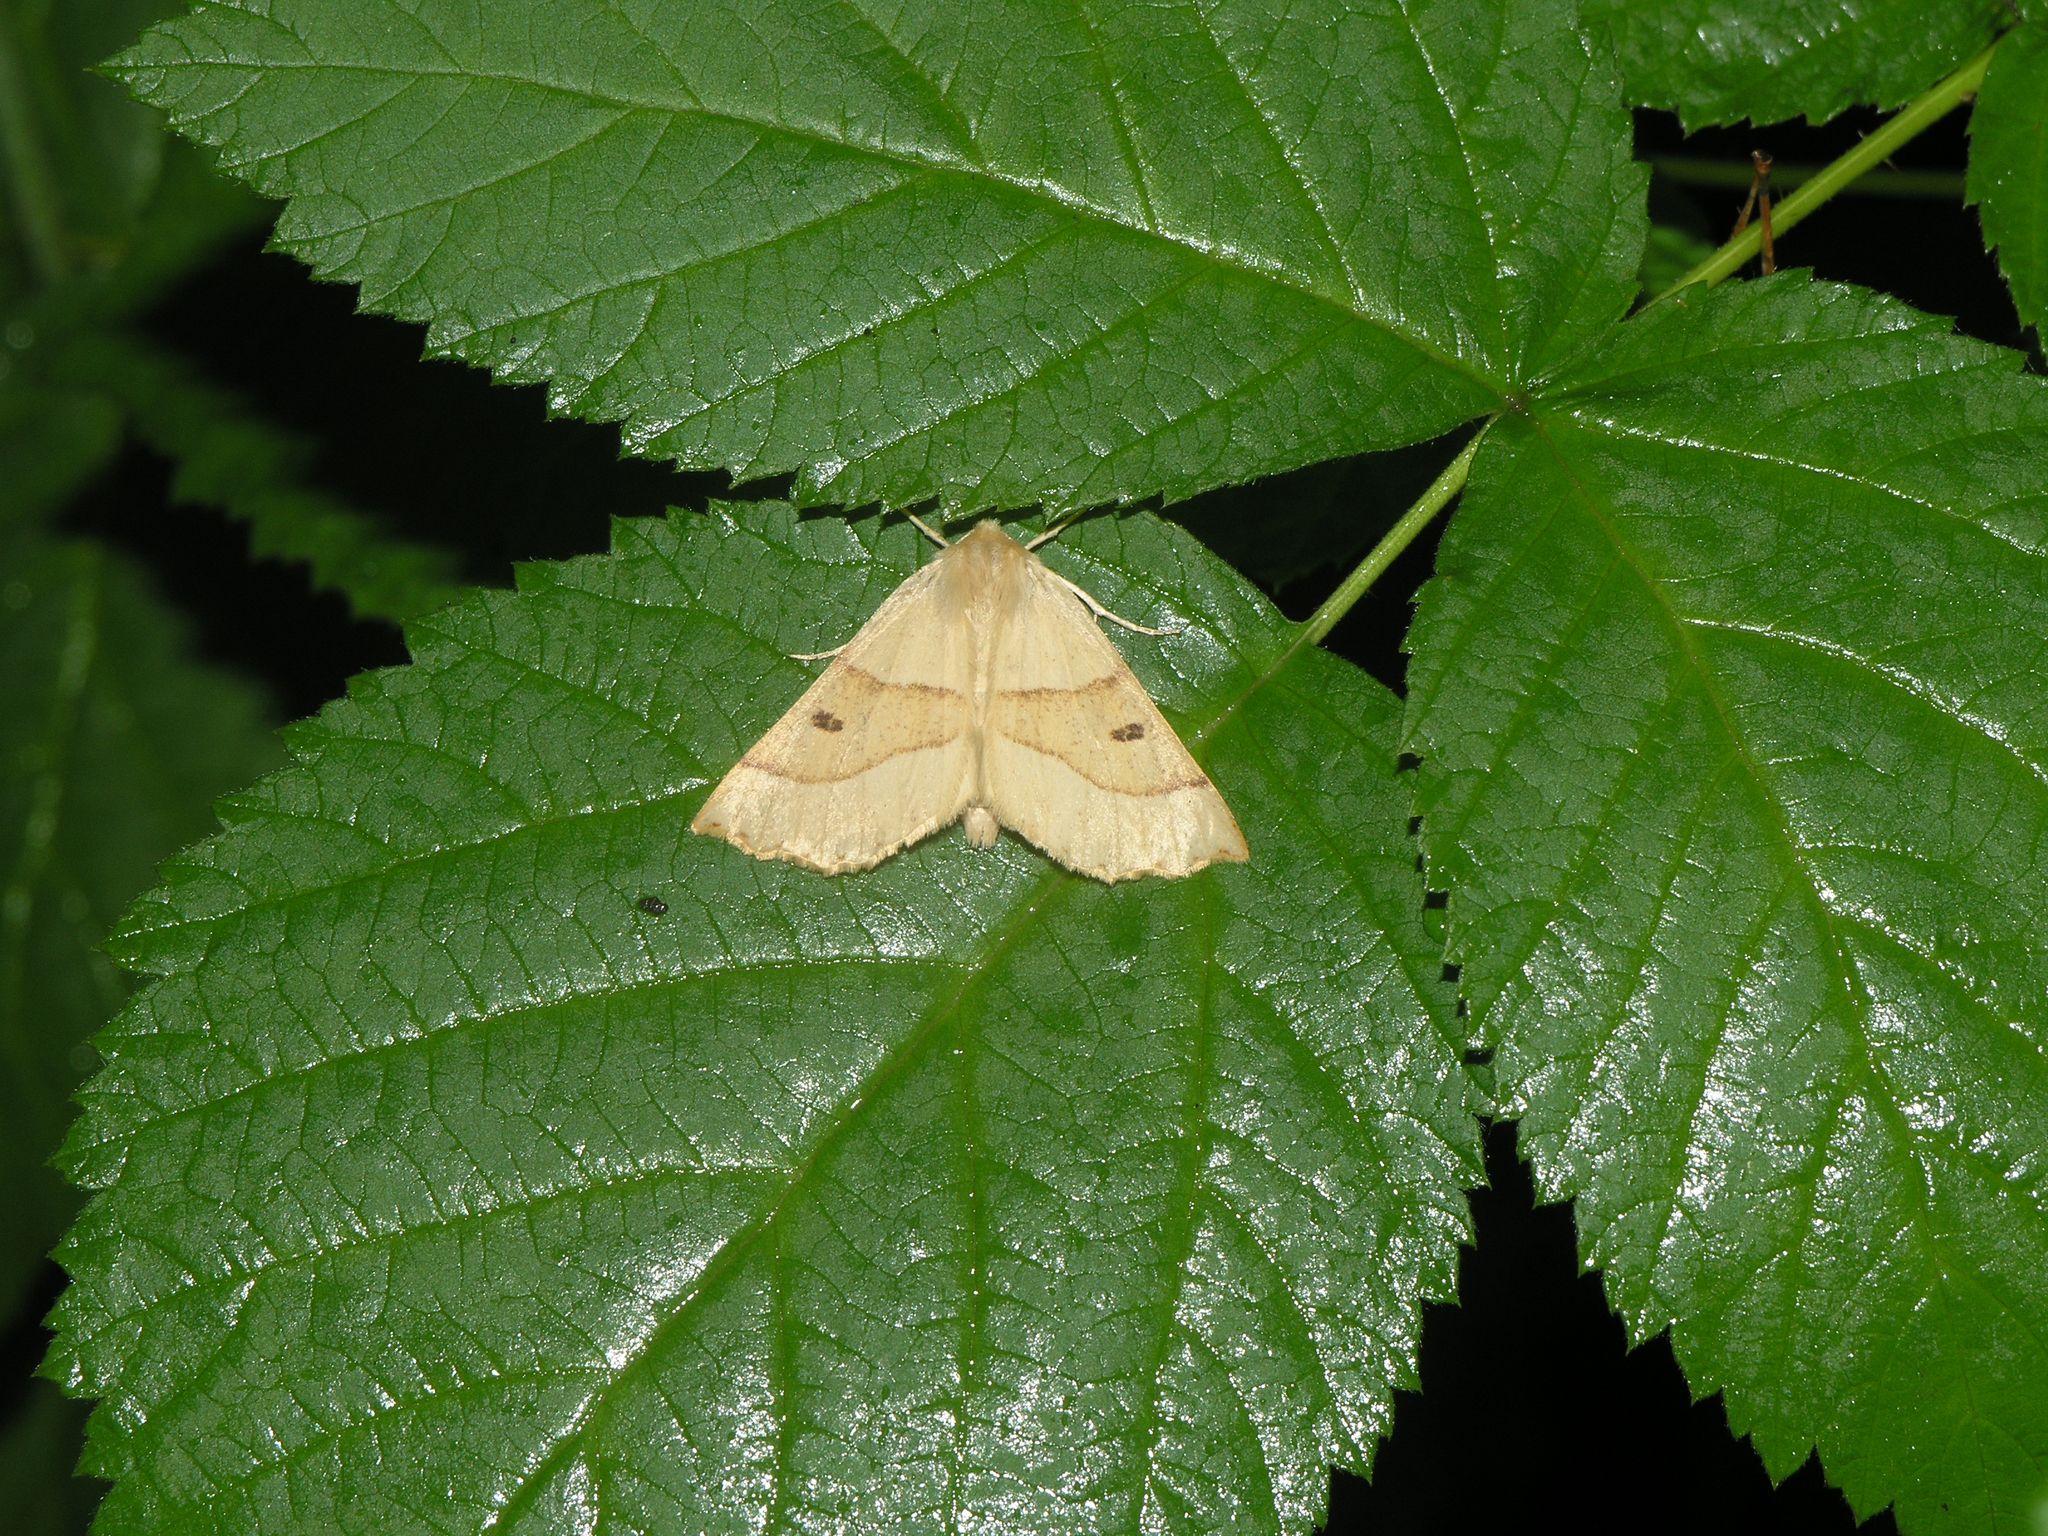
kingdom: Animalia
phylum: Arthropoda
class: Insecta
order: Lepidoptera
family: Geometridae
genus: Crocallis
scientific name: Crocallis elinguaria
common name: Scalloped oak
